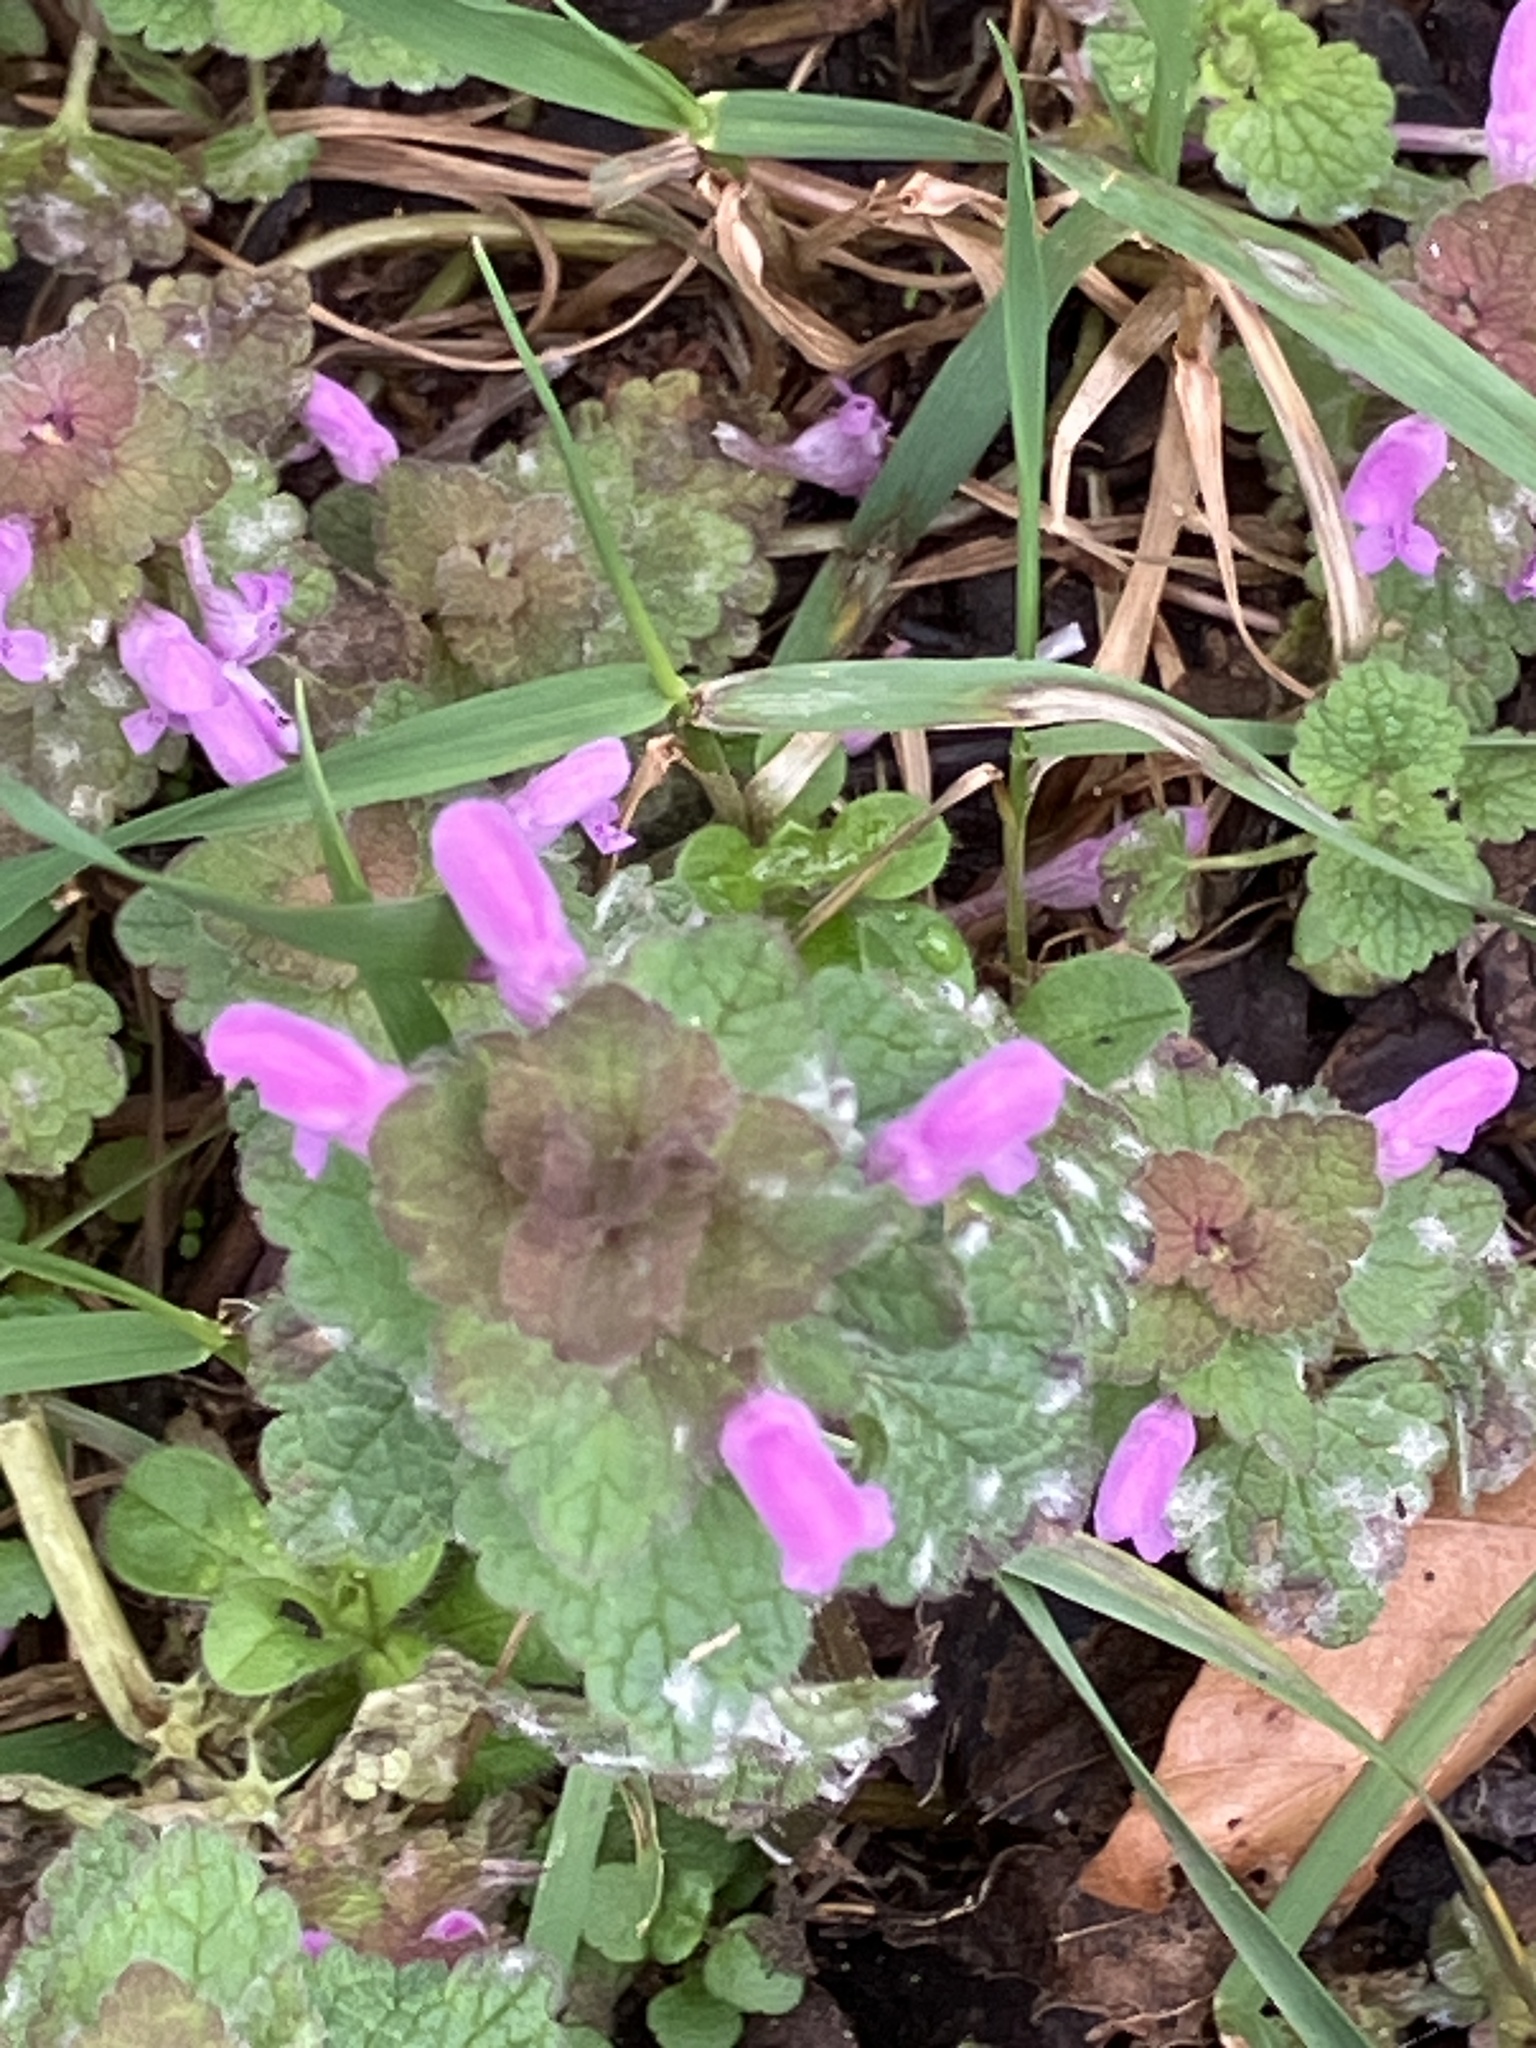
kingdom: Plantae
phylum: Tracheophyta
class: Magnoliopsida
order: Lamiales
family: Lamiaceae
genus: Lamium
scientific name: Lamium purpureum
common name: Red dead-nettle
